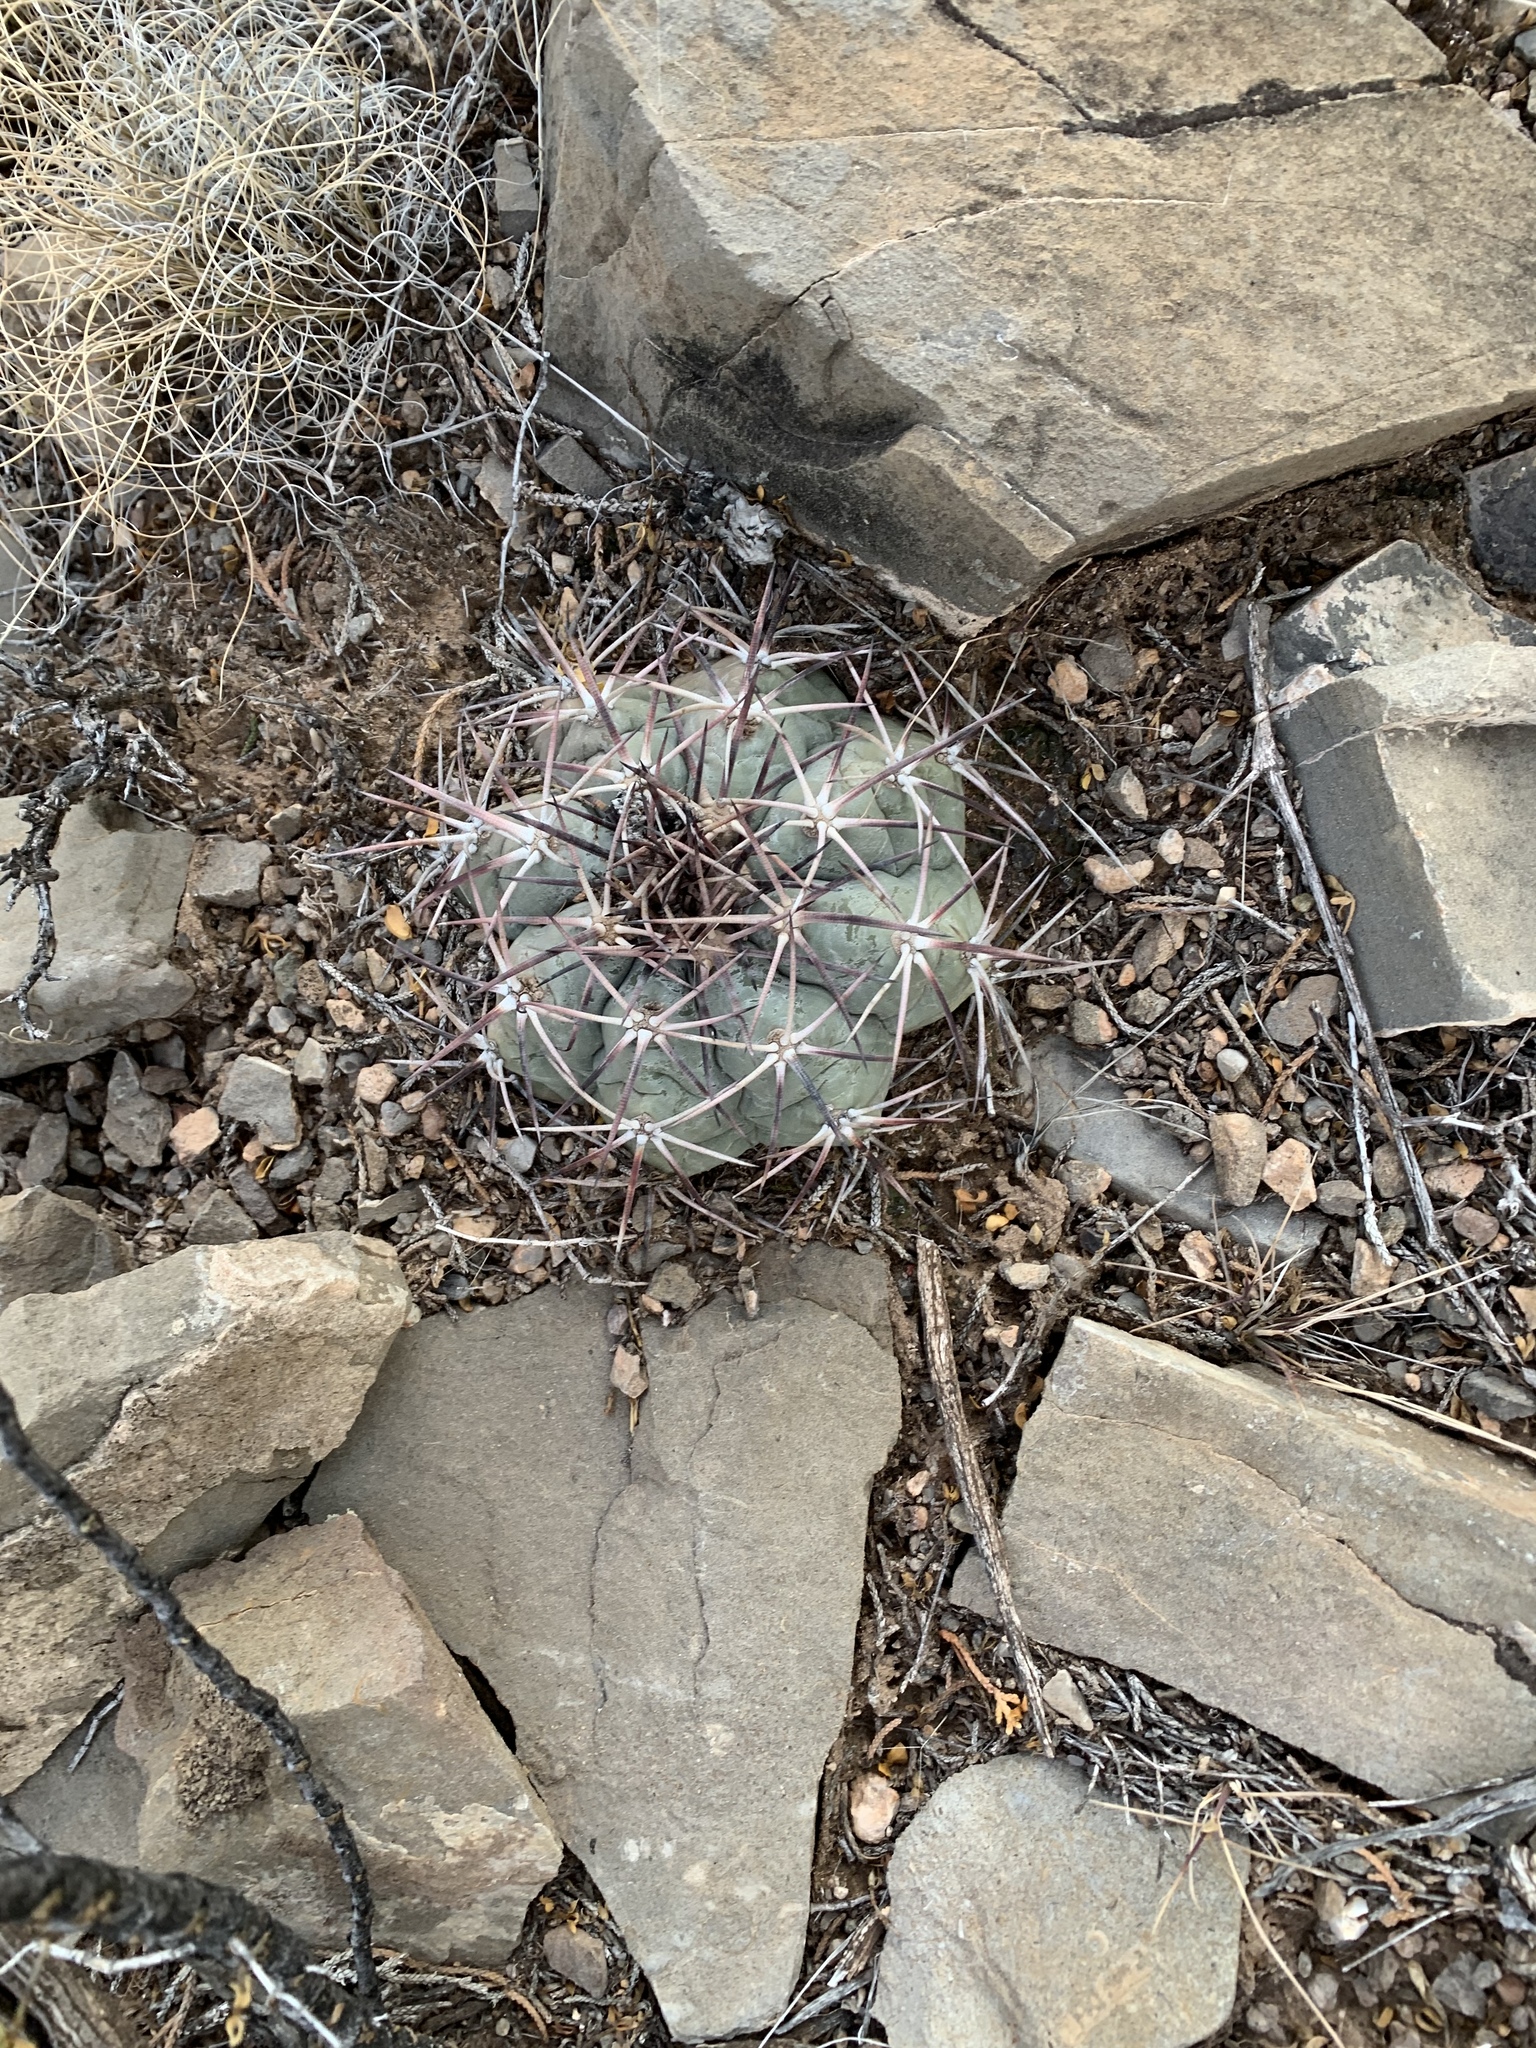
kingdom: Plantae
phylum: Tracheophyta
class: Magnoliopsida
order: Caryophyllales
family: Cactaceae
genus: Echinocactus
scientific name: Echinocactus horizonthalonius
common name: Devilshead
